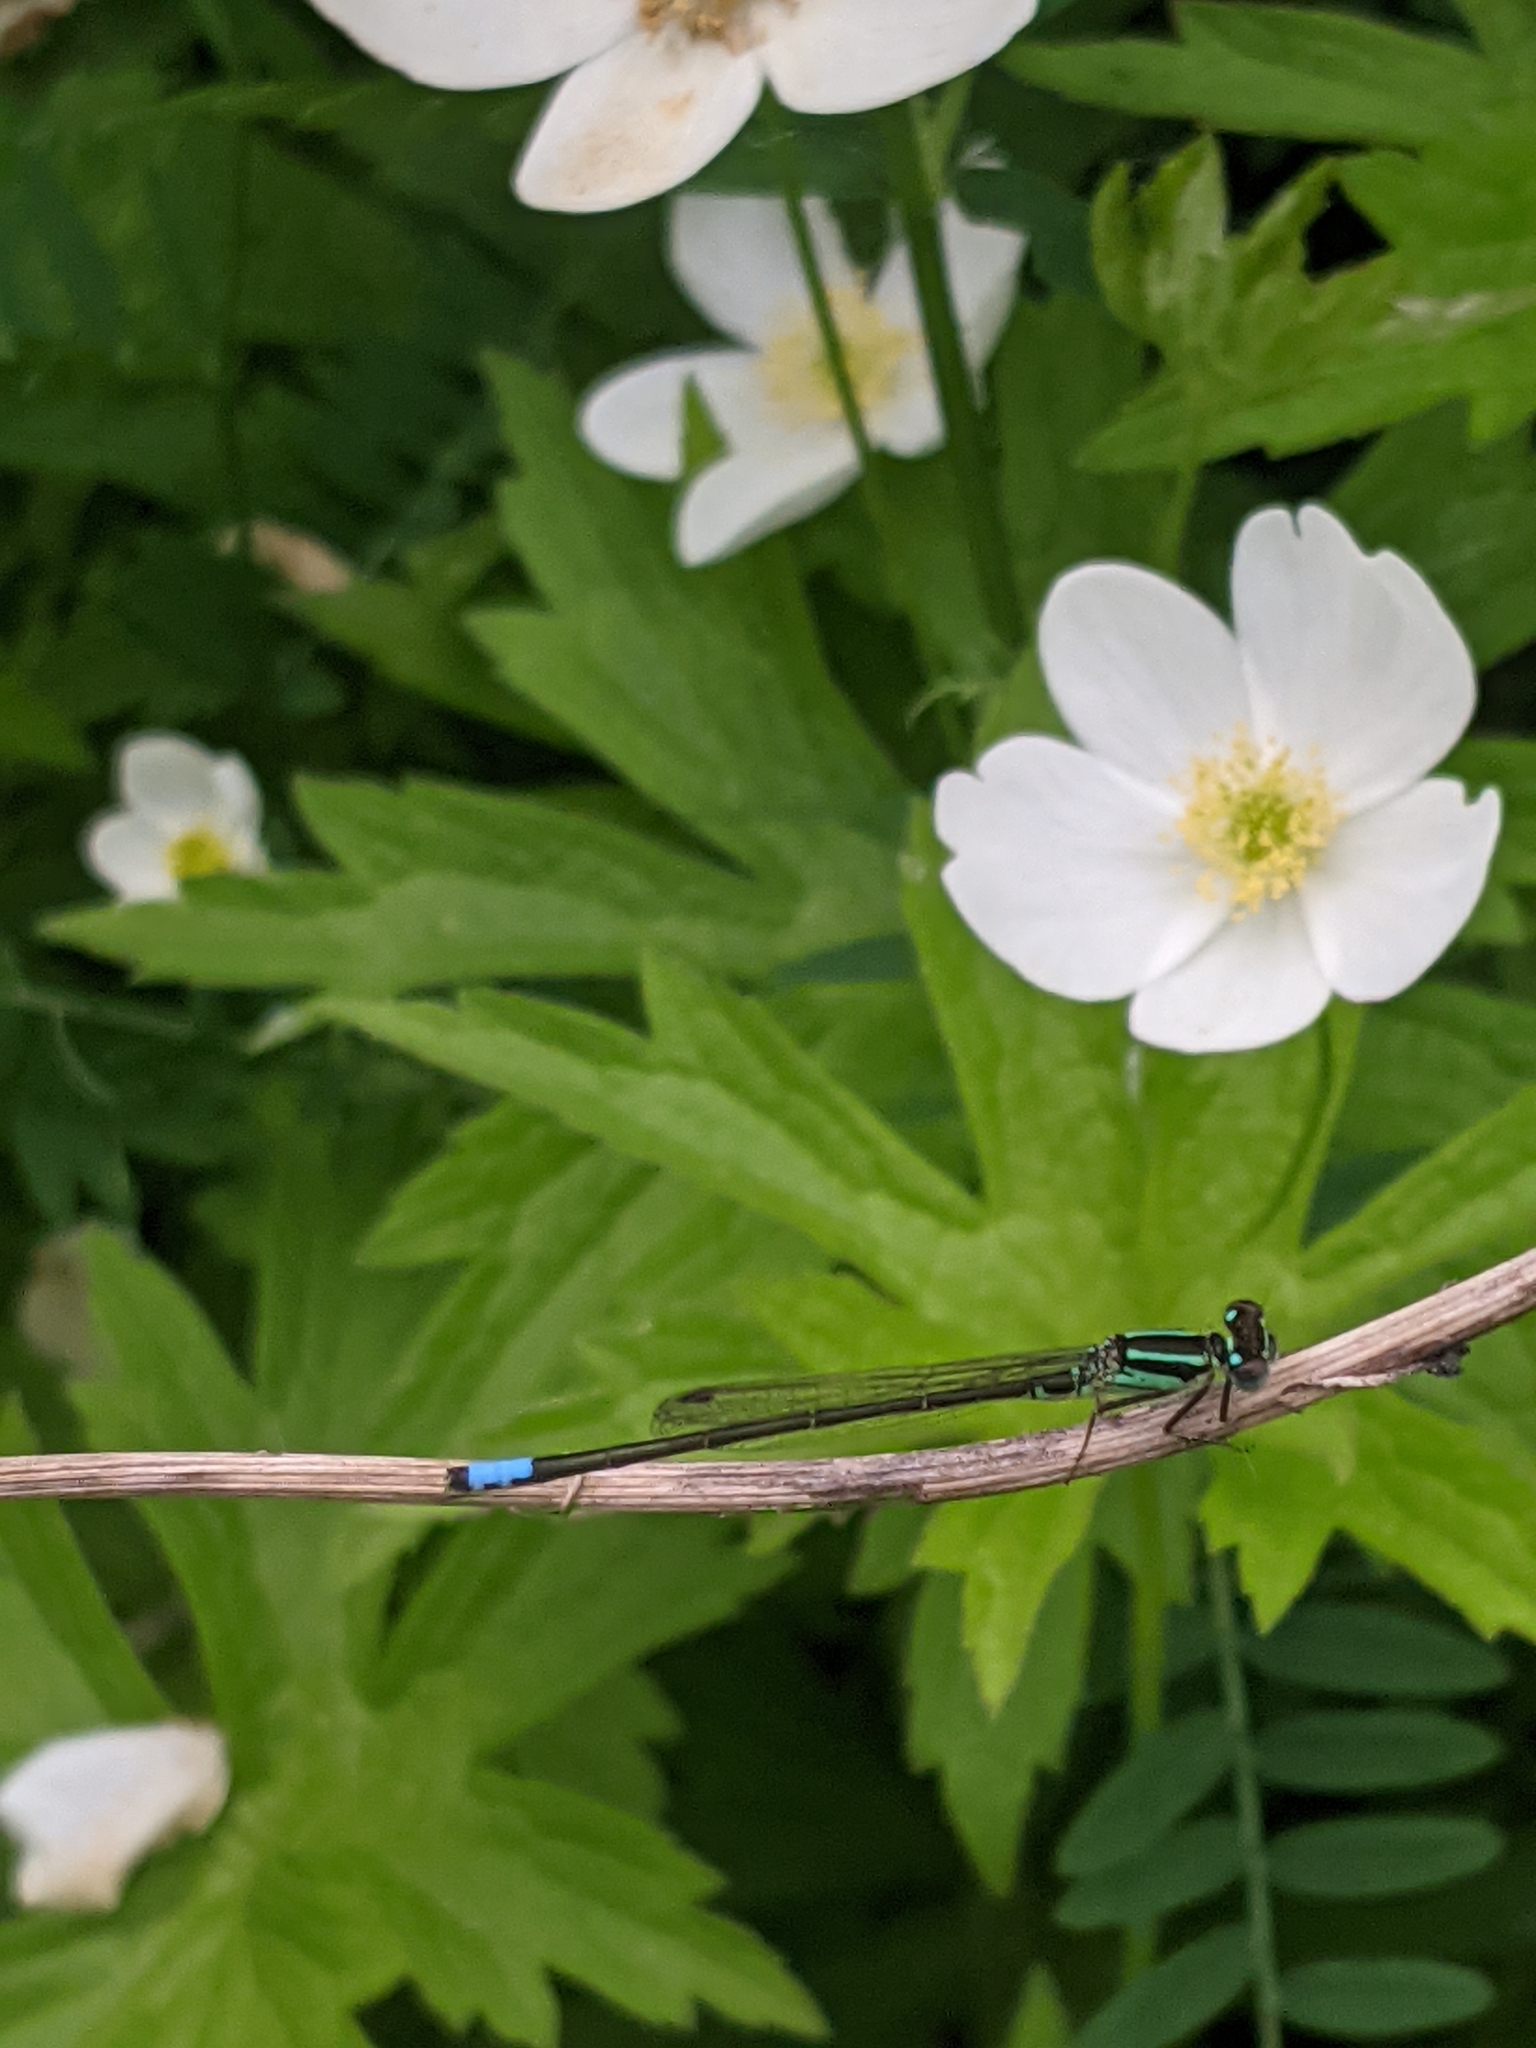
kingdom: Animalia
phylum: Arthropoda
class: Insecta
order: Odonata
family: Coenagrionidae
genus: Ischnura
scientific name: Ischnura verticalis
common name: Eastern forktail
